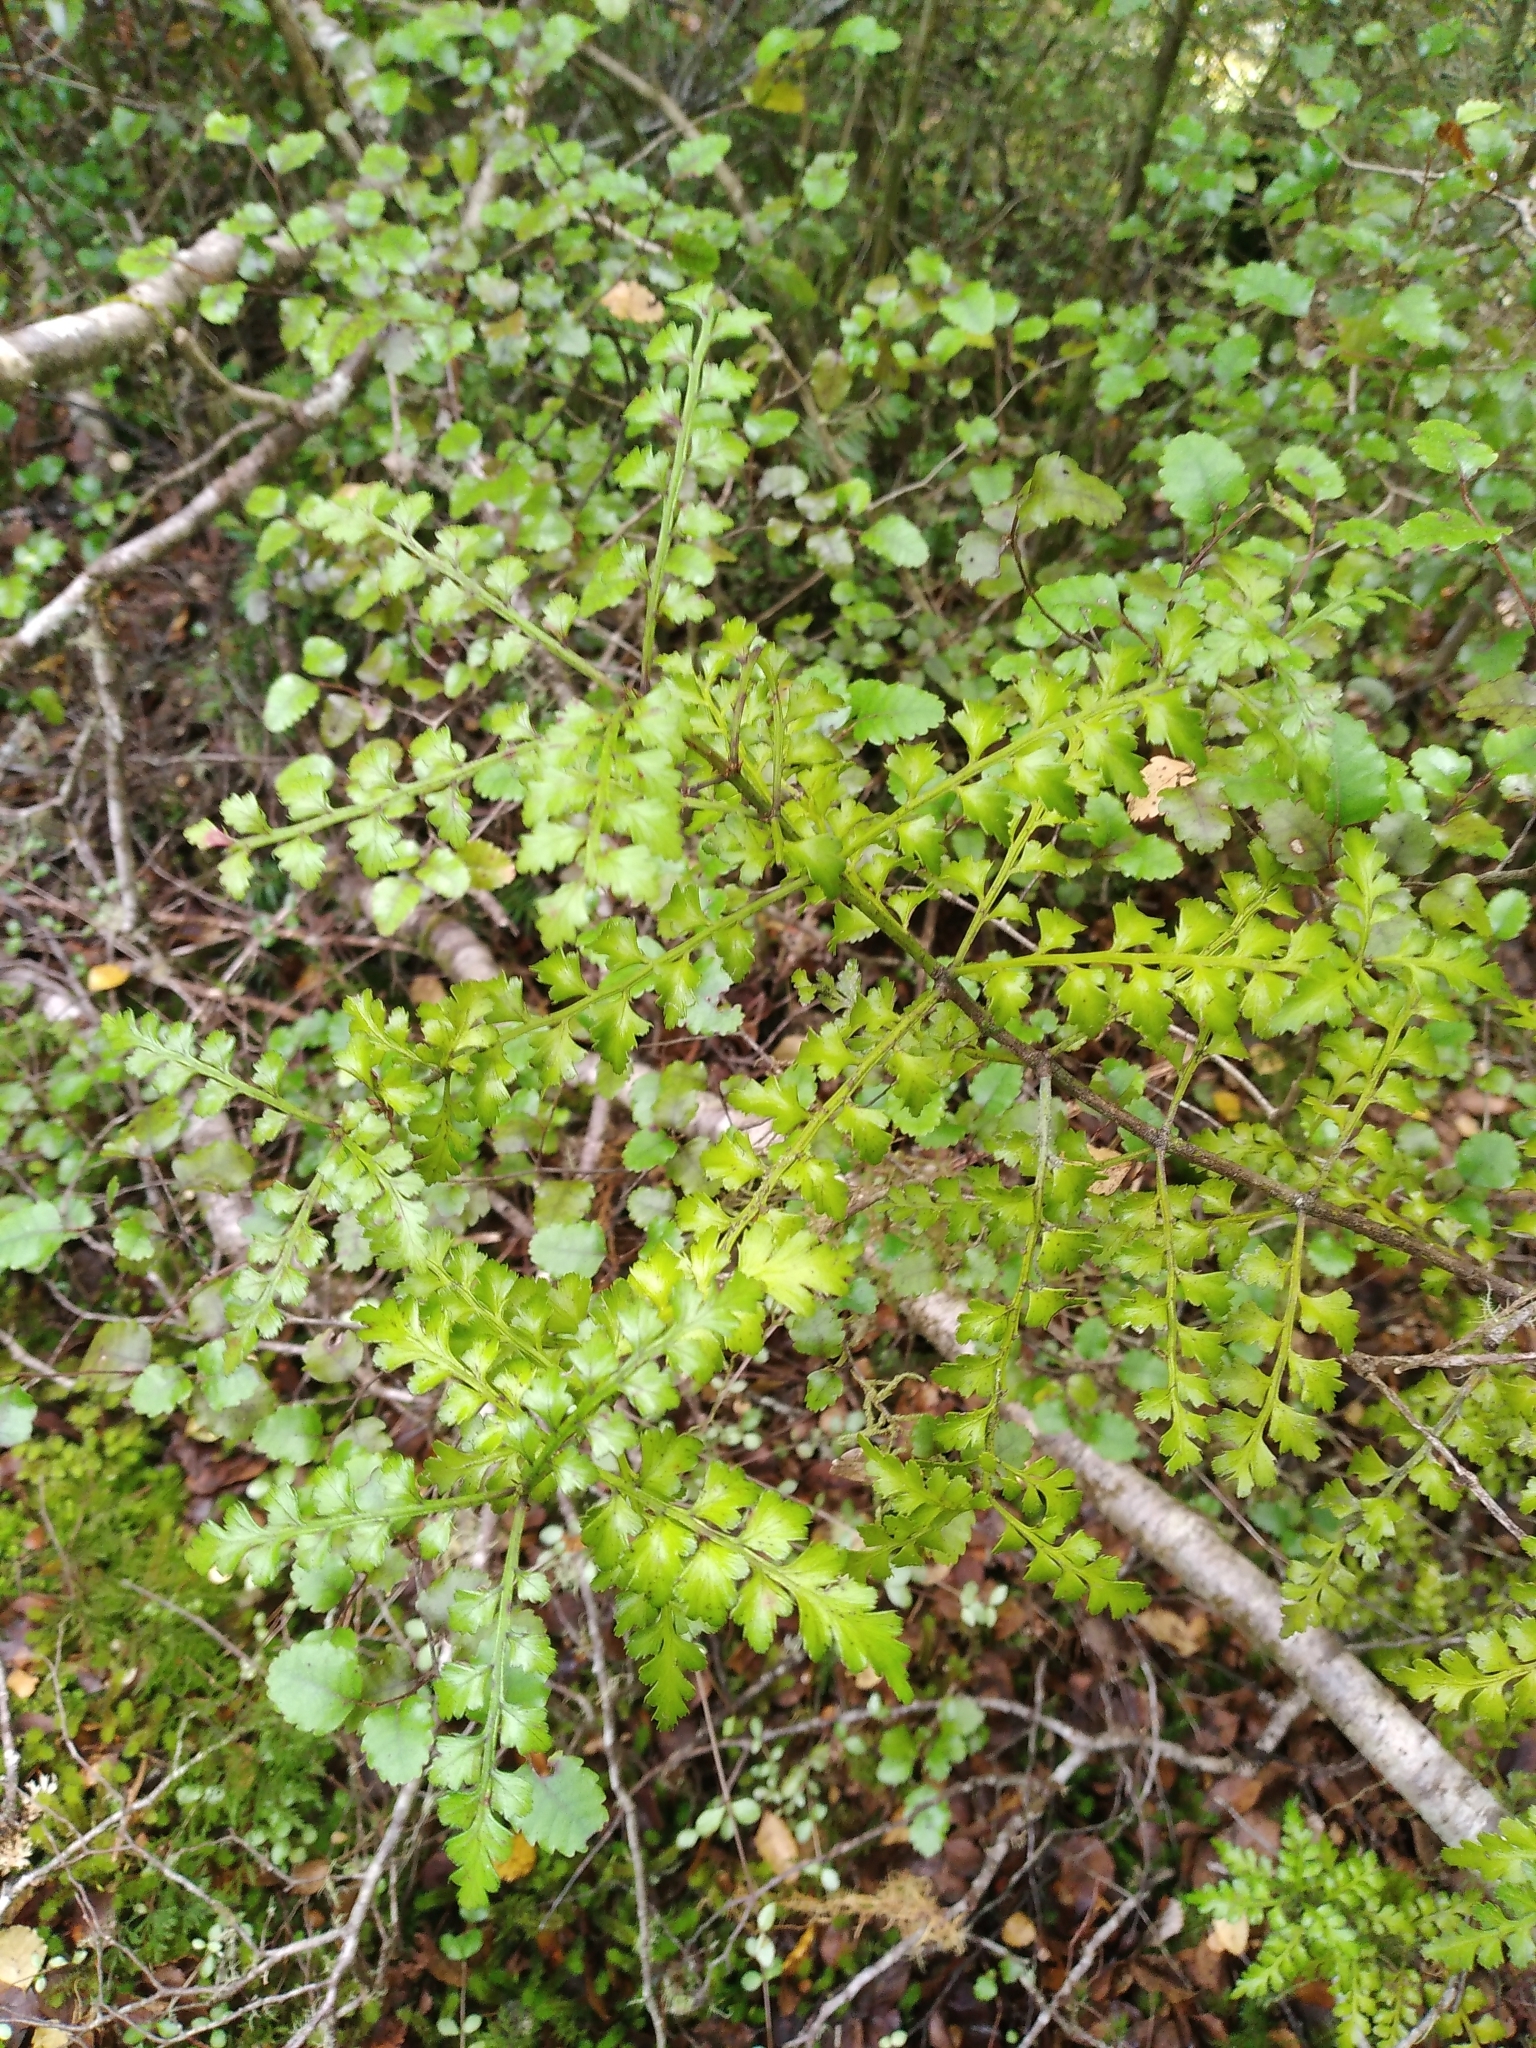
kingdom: Plantae
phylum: Tracheophyta
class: Pinopsida
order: Pinales
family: Phyllocladaceae
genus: Phyllocladus
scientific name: Phyllocladus trichomanoides
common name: Celery pine
